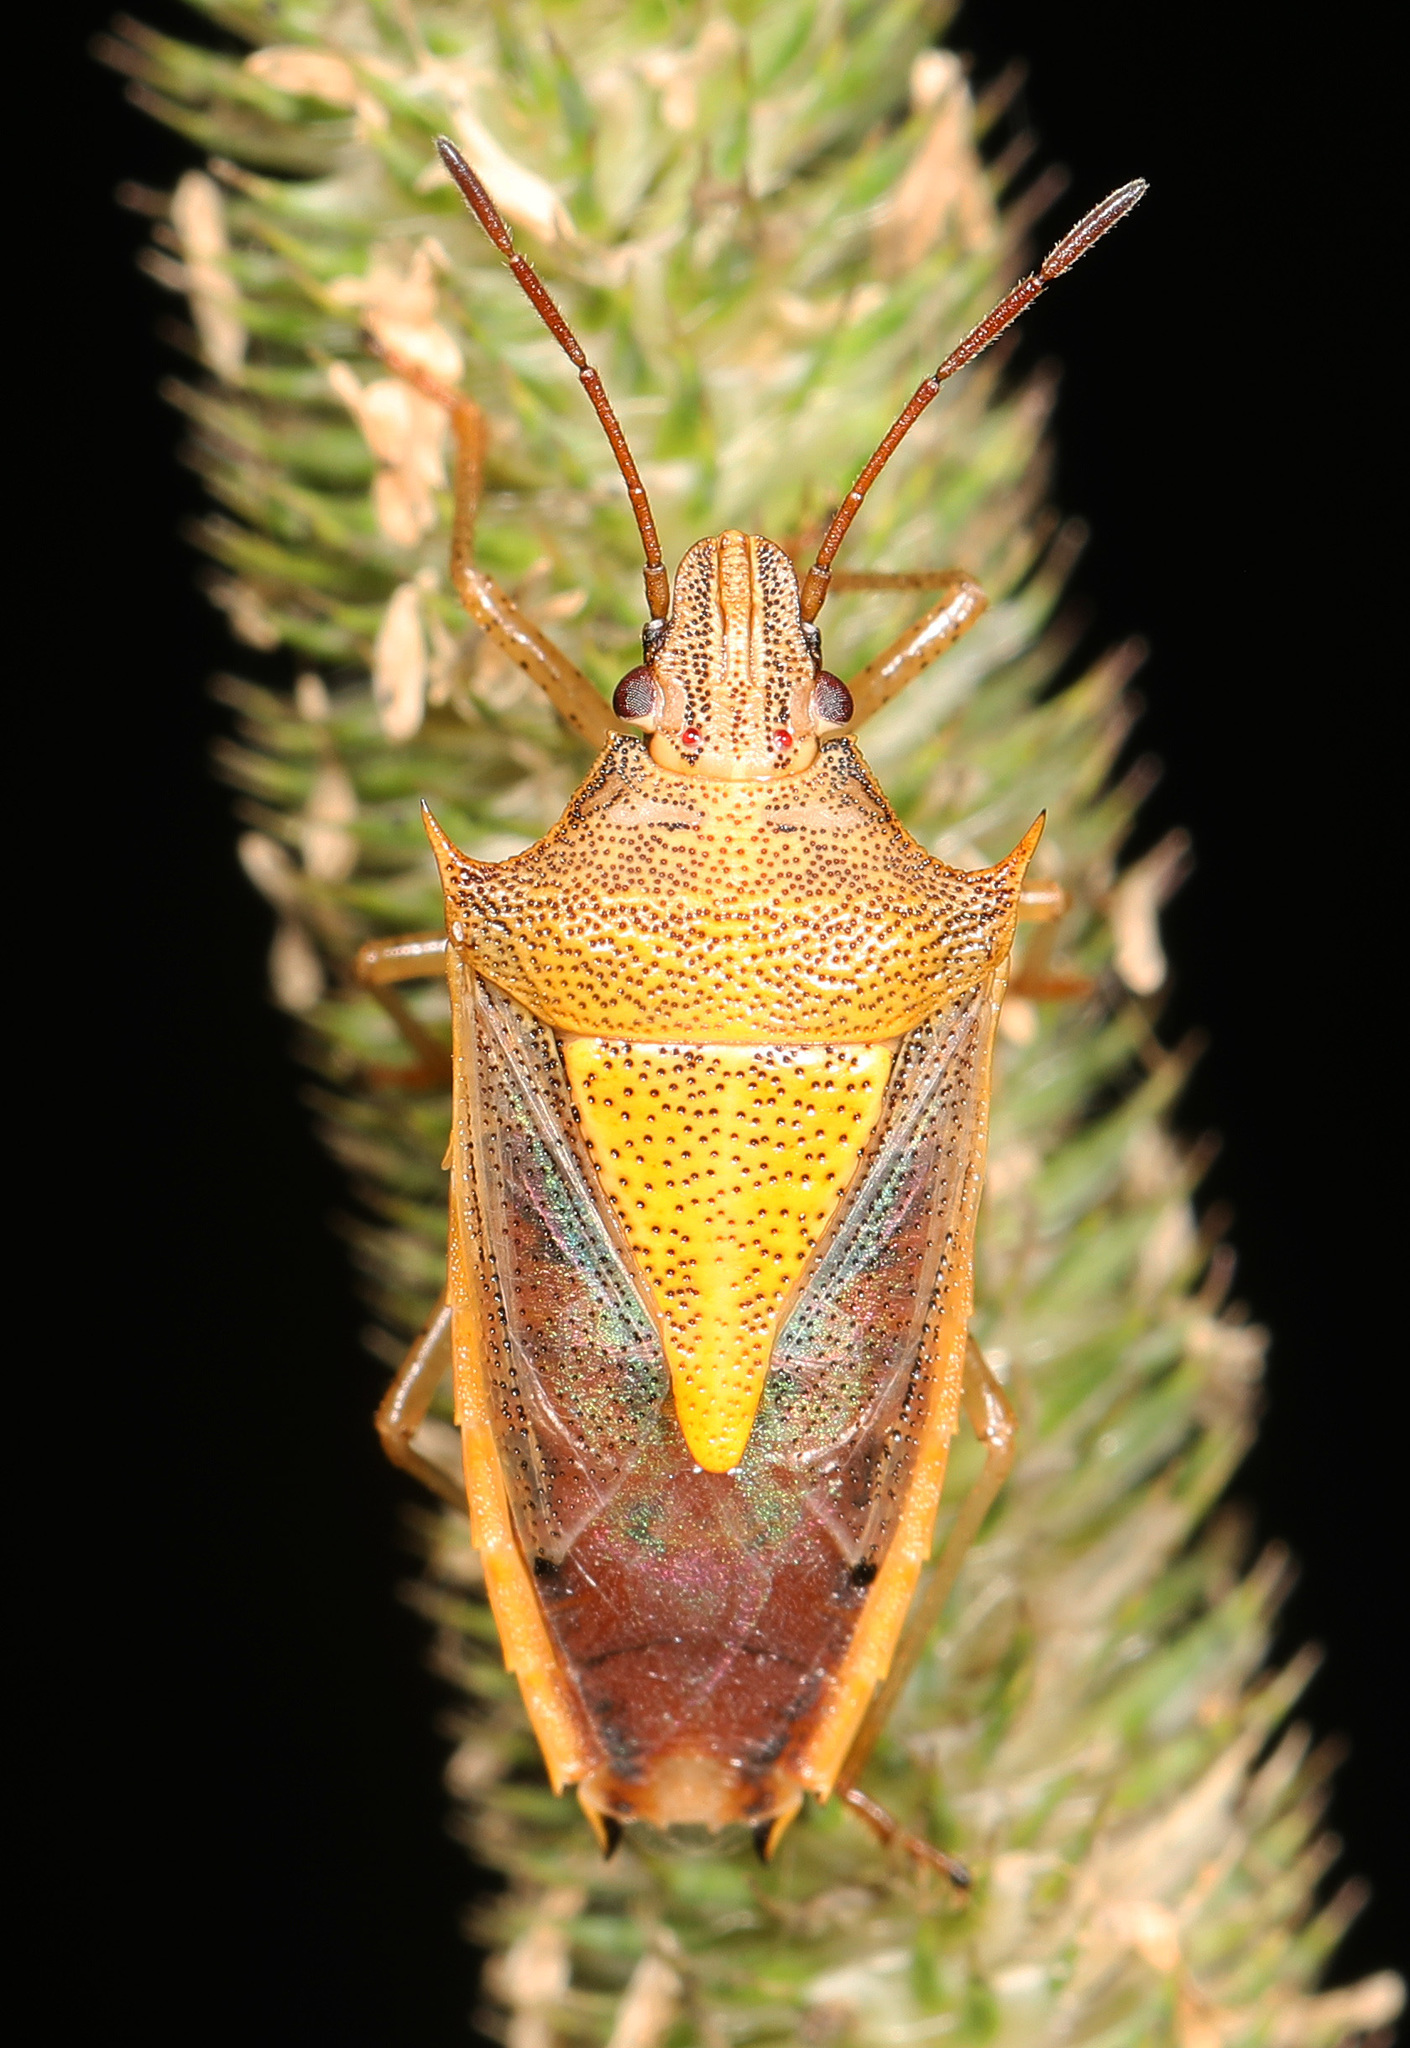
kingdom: Animalia
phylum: Arthropoda
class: Insecta
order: Hemiptera
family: Pentatomidae
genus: Oebalus
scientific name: Oebalus pugnax
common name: Rice stink bug
